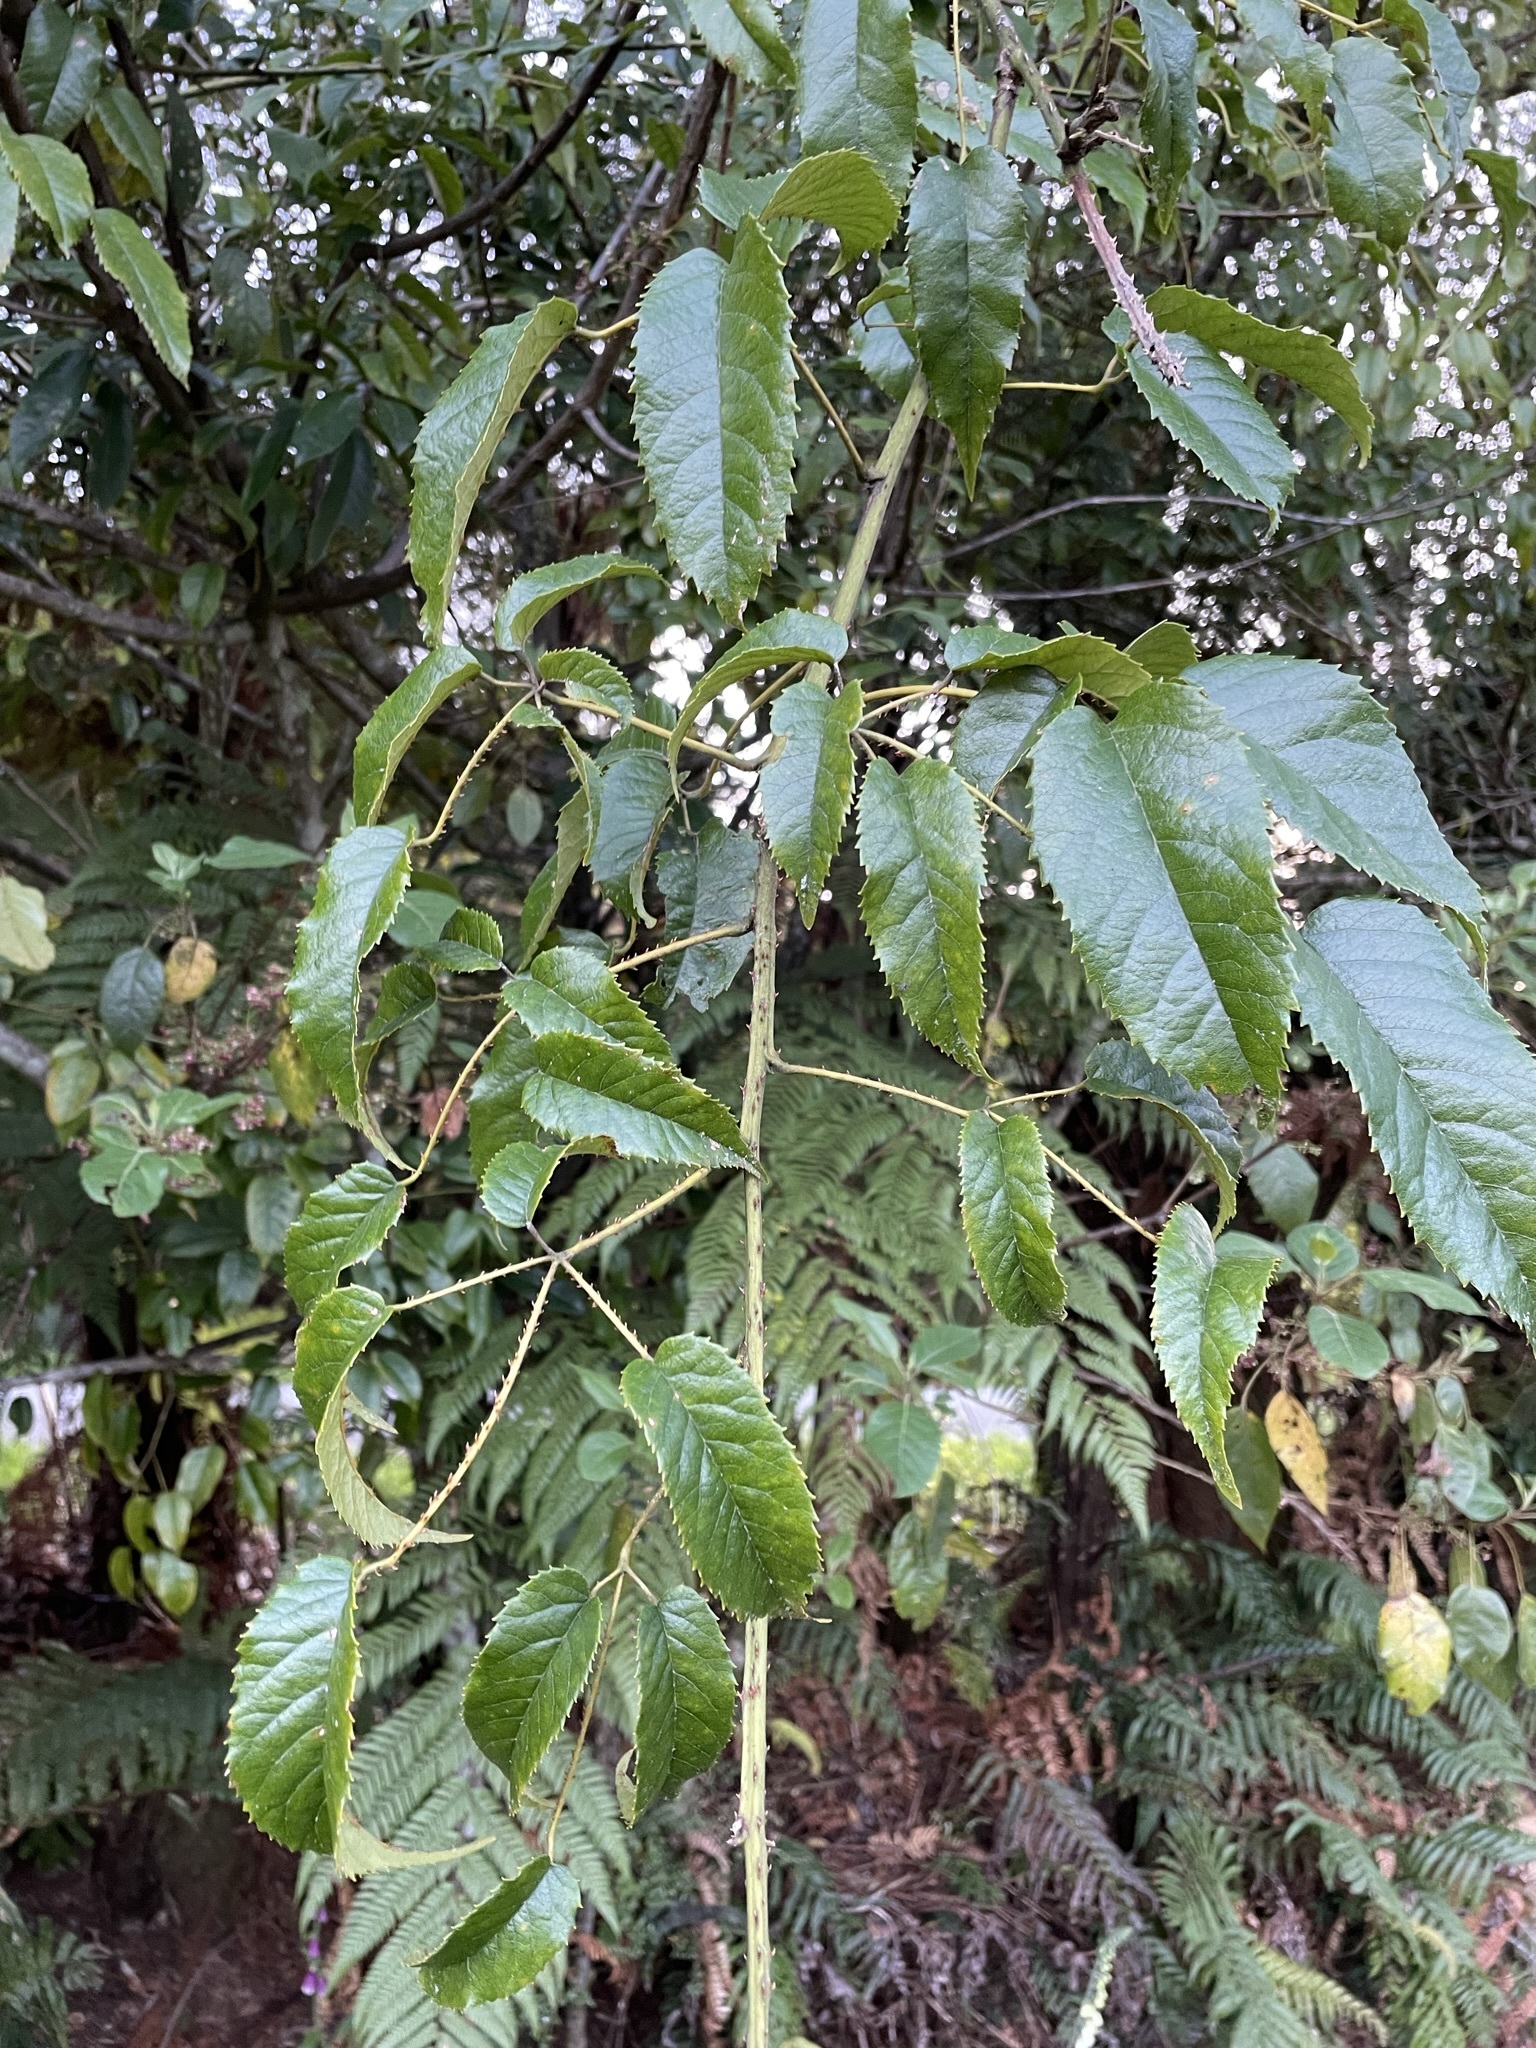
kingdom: Plantae
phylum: Tracheophyta
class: Magnoliopsida
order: Rosales
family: Rosaceae
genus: Rubus
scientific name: Rubus cissoides
